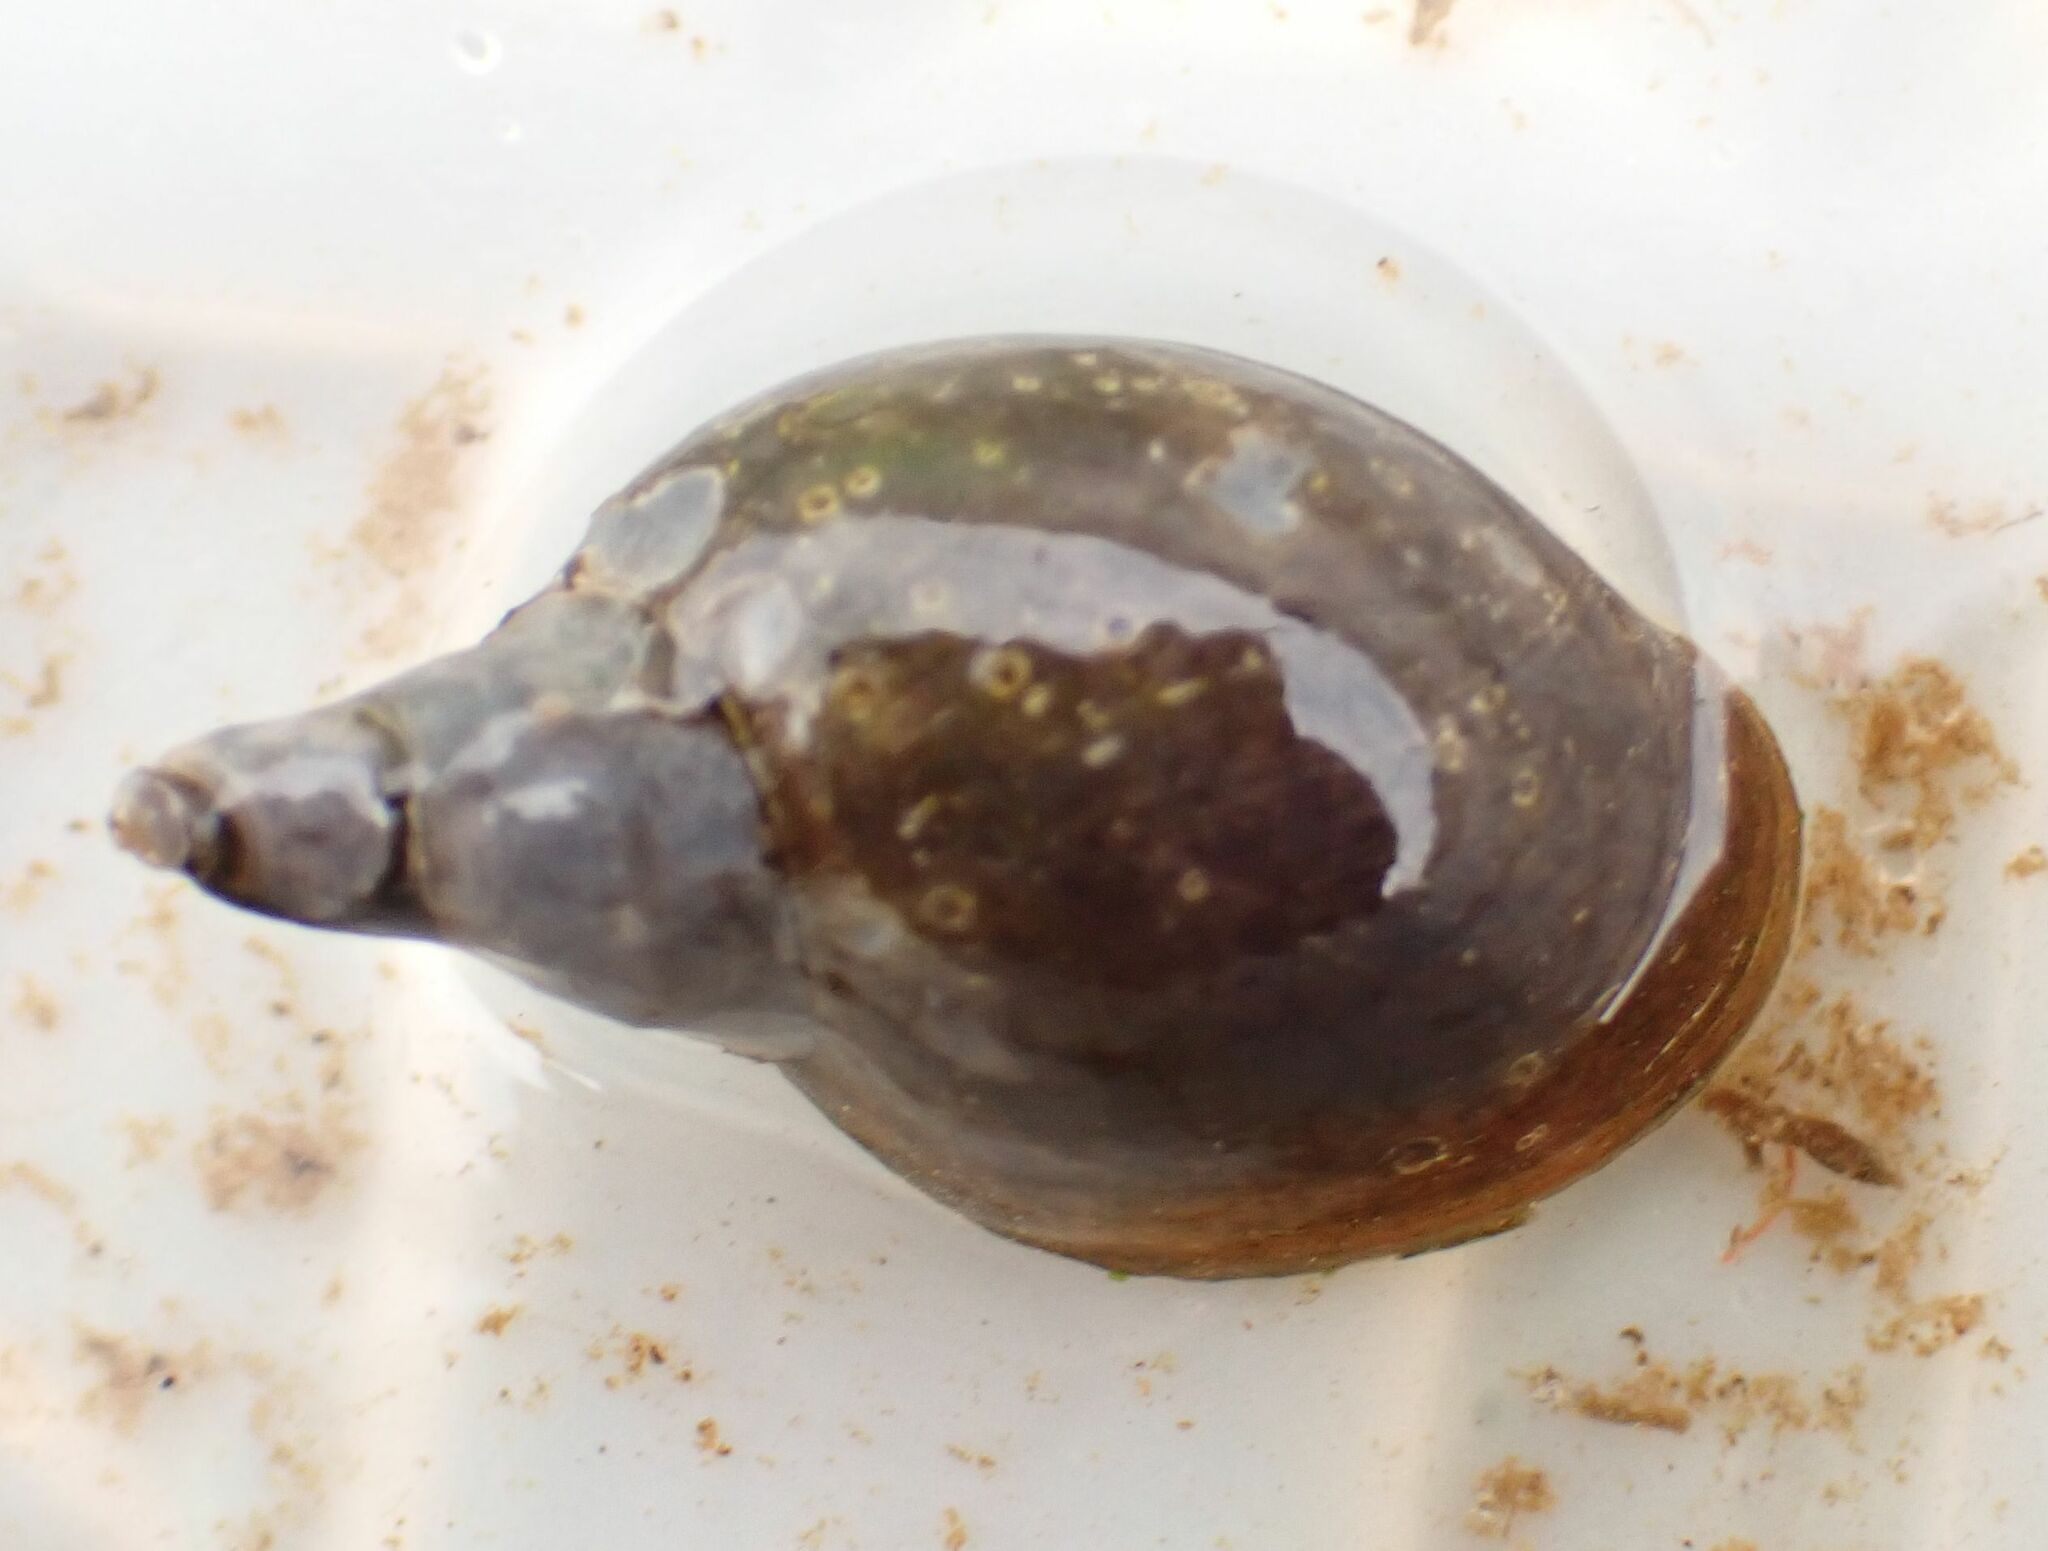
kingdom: Animalia
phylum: Mollusca
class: Gastropoda
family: Lymnaeidae
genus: Lymnaea
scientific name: Lymnaea stagnalis
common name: Great pond snail
